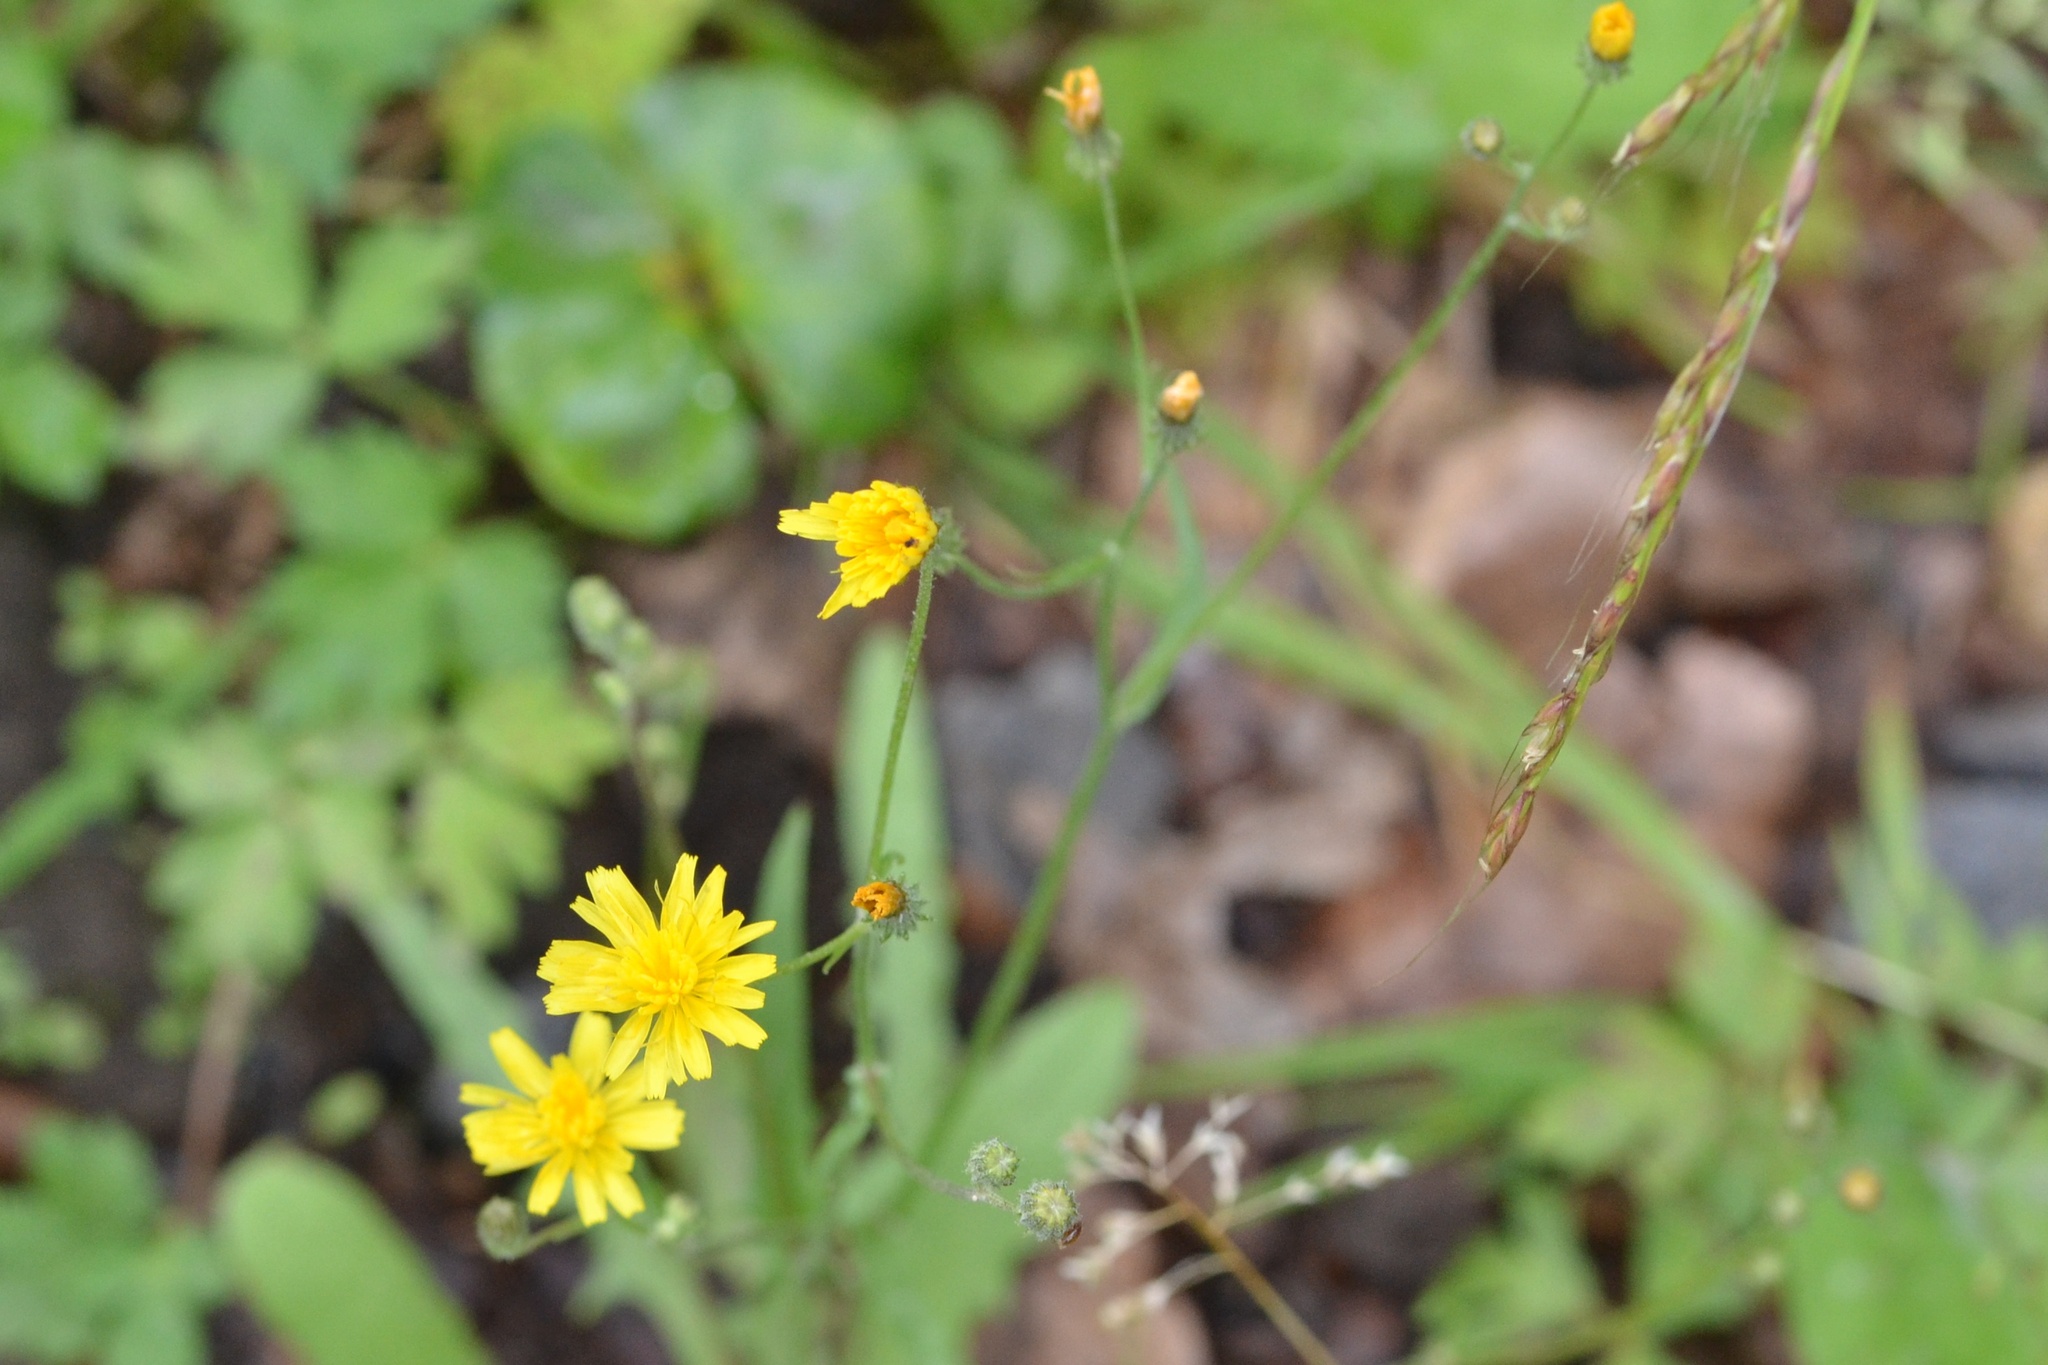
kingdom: Plantae
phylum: Tracheophyta
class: Magnoliopsida
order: Asterales
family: Asteraceae
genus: Crepis
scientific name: Crepis capillaris
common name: Smooth hawksbeard
